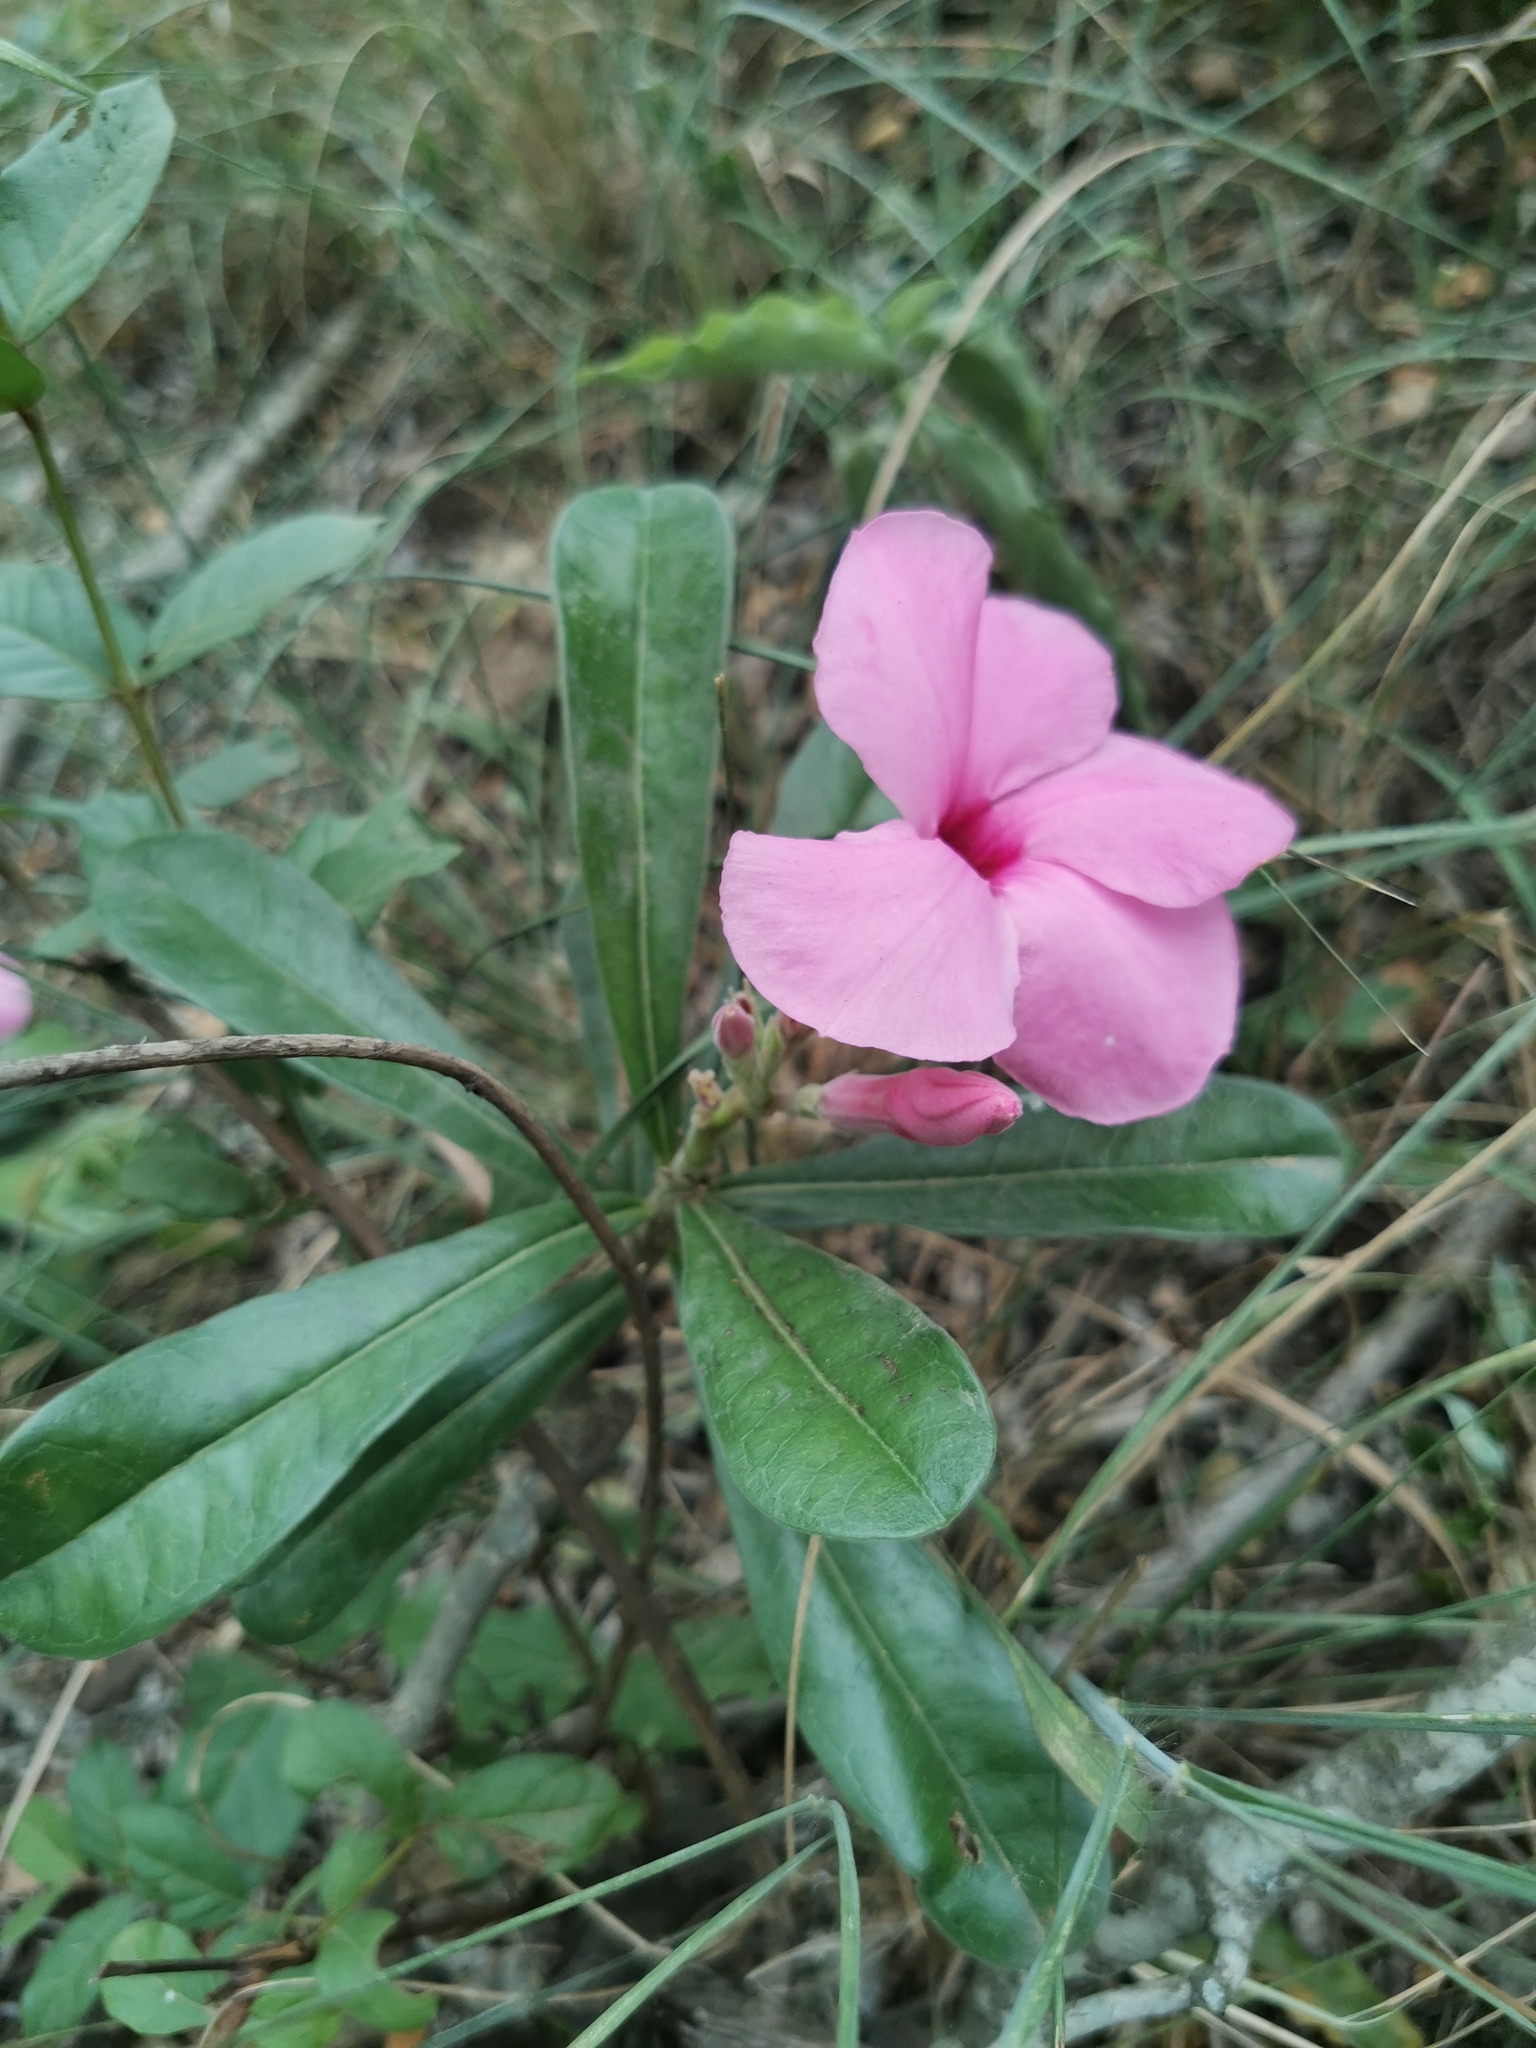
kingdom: Plantae
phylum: Tracheophyta
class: Magnoliopsida
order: Gentianales
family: Apocynaceae
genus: Adenium
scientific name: Adenium obesum
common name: Desert-rose
